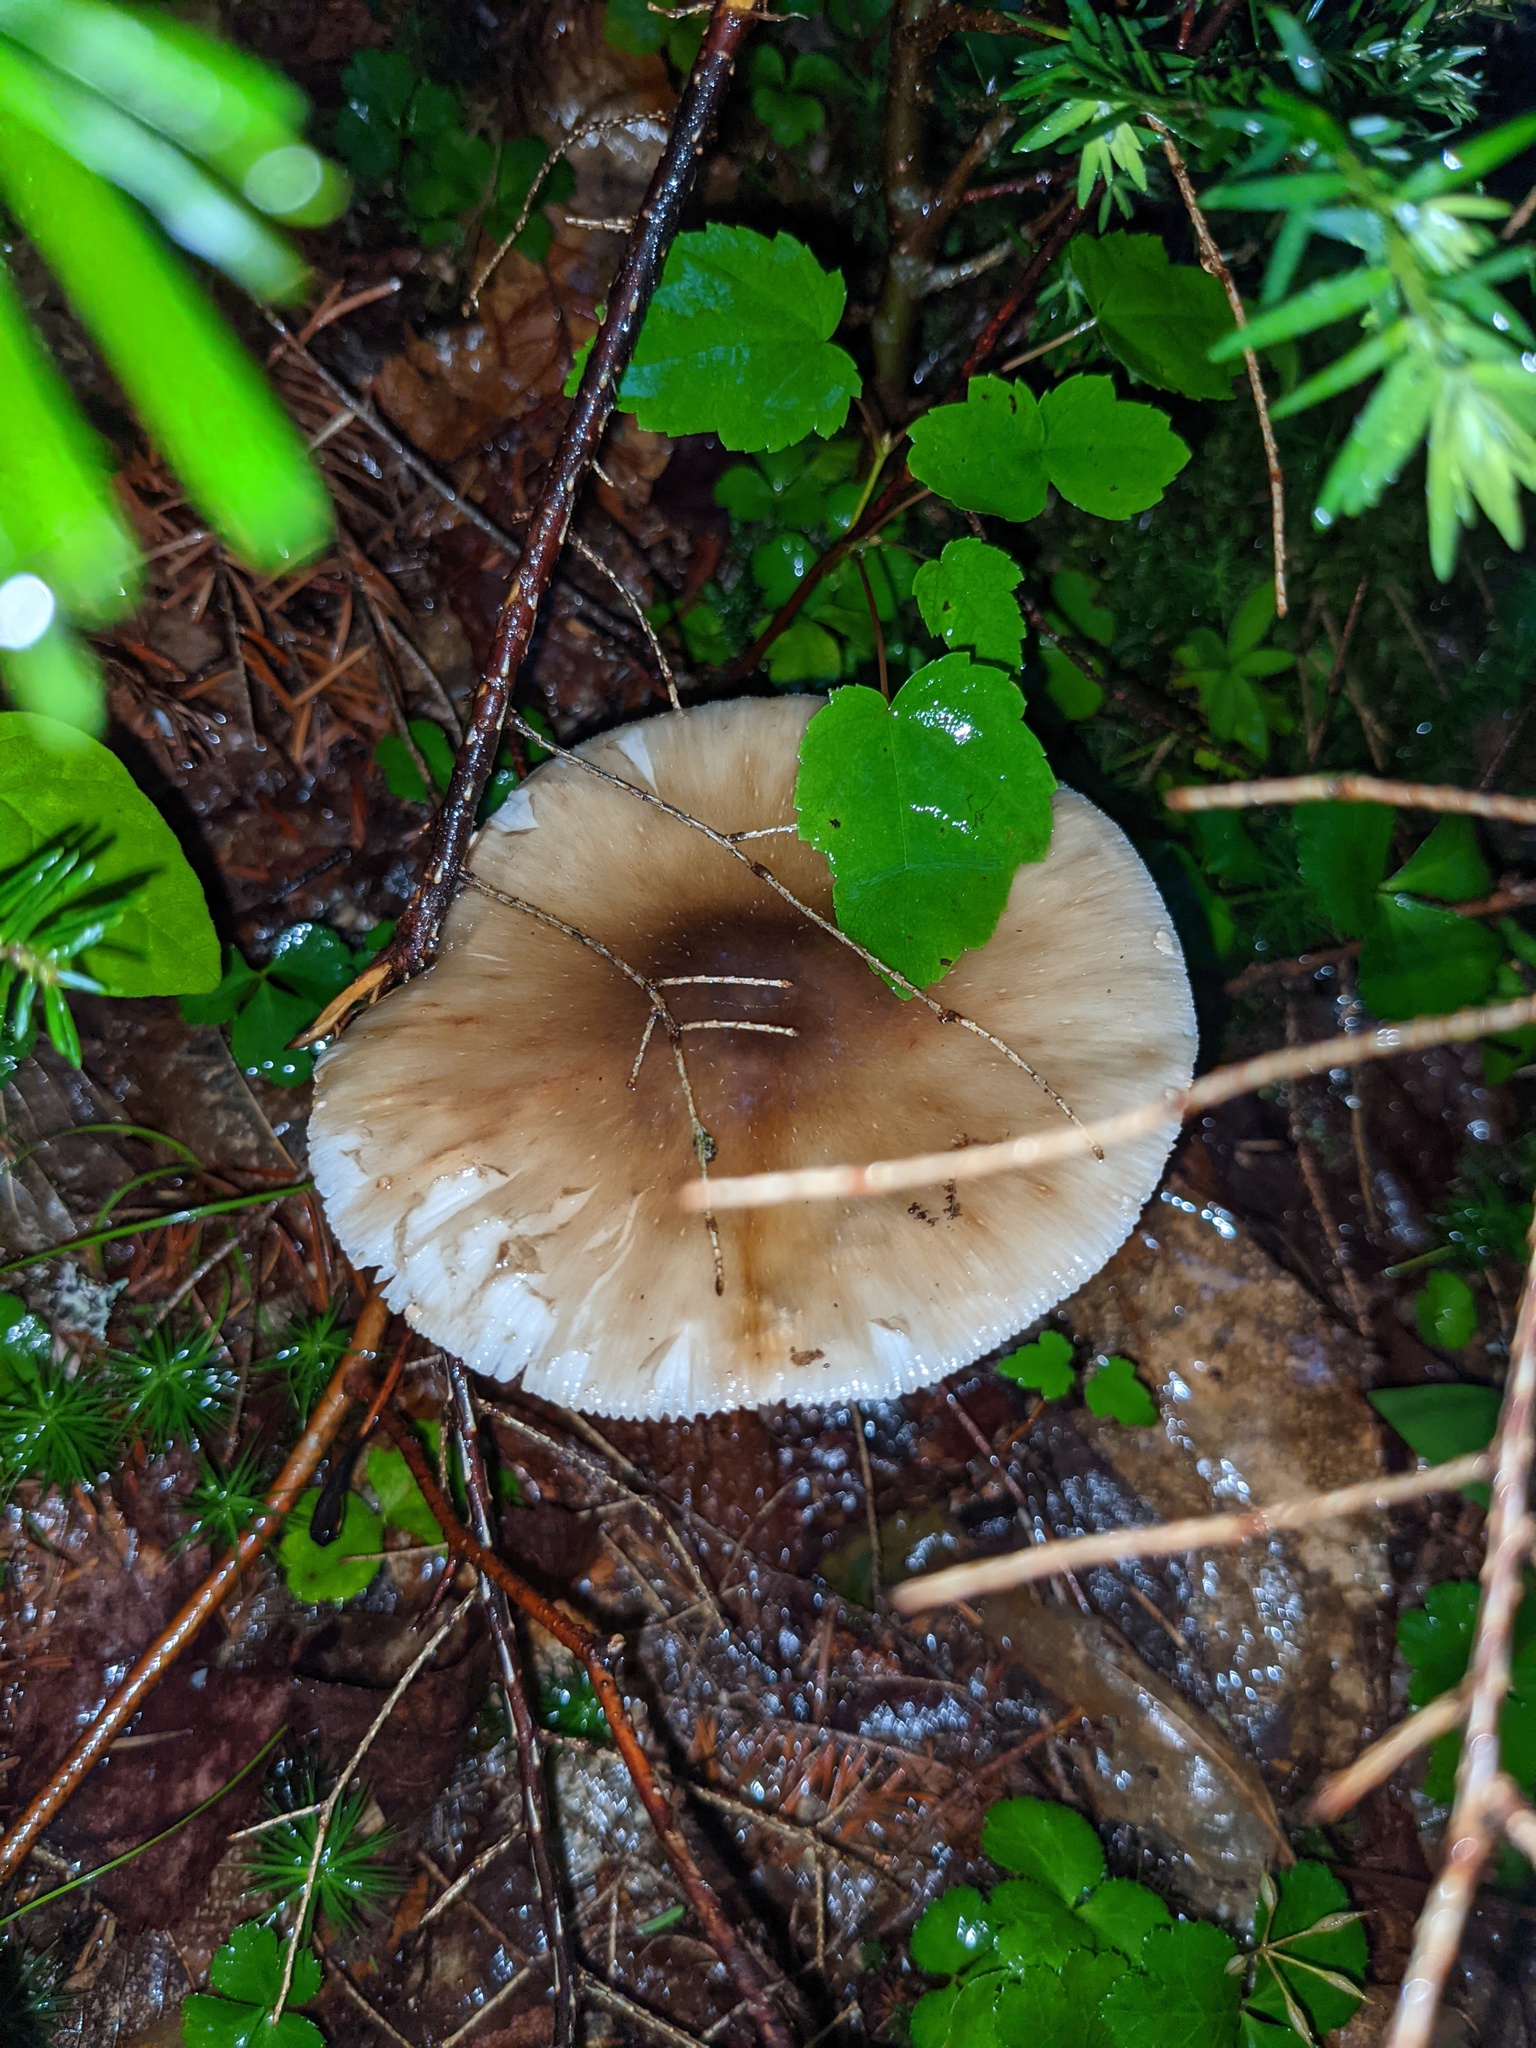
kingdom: Plantae
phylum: Tracheophyta
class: Magnoliopsida
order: Sapindales
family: Sapindaceae
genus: Acer
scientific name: Acer rubrum
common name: Red maple
